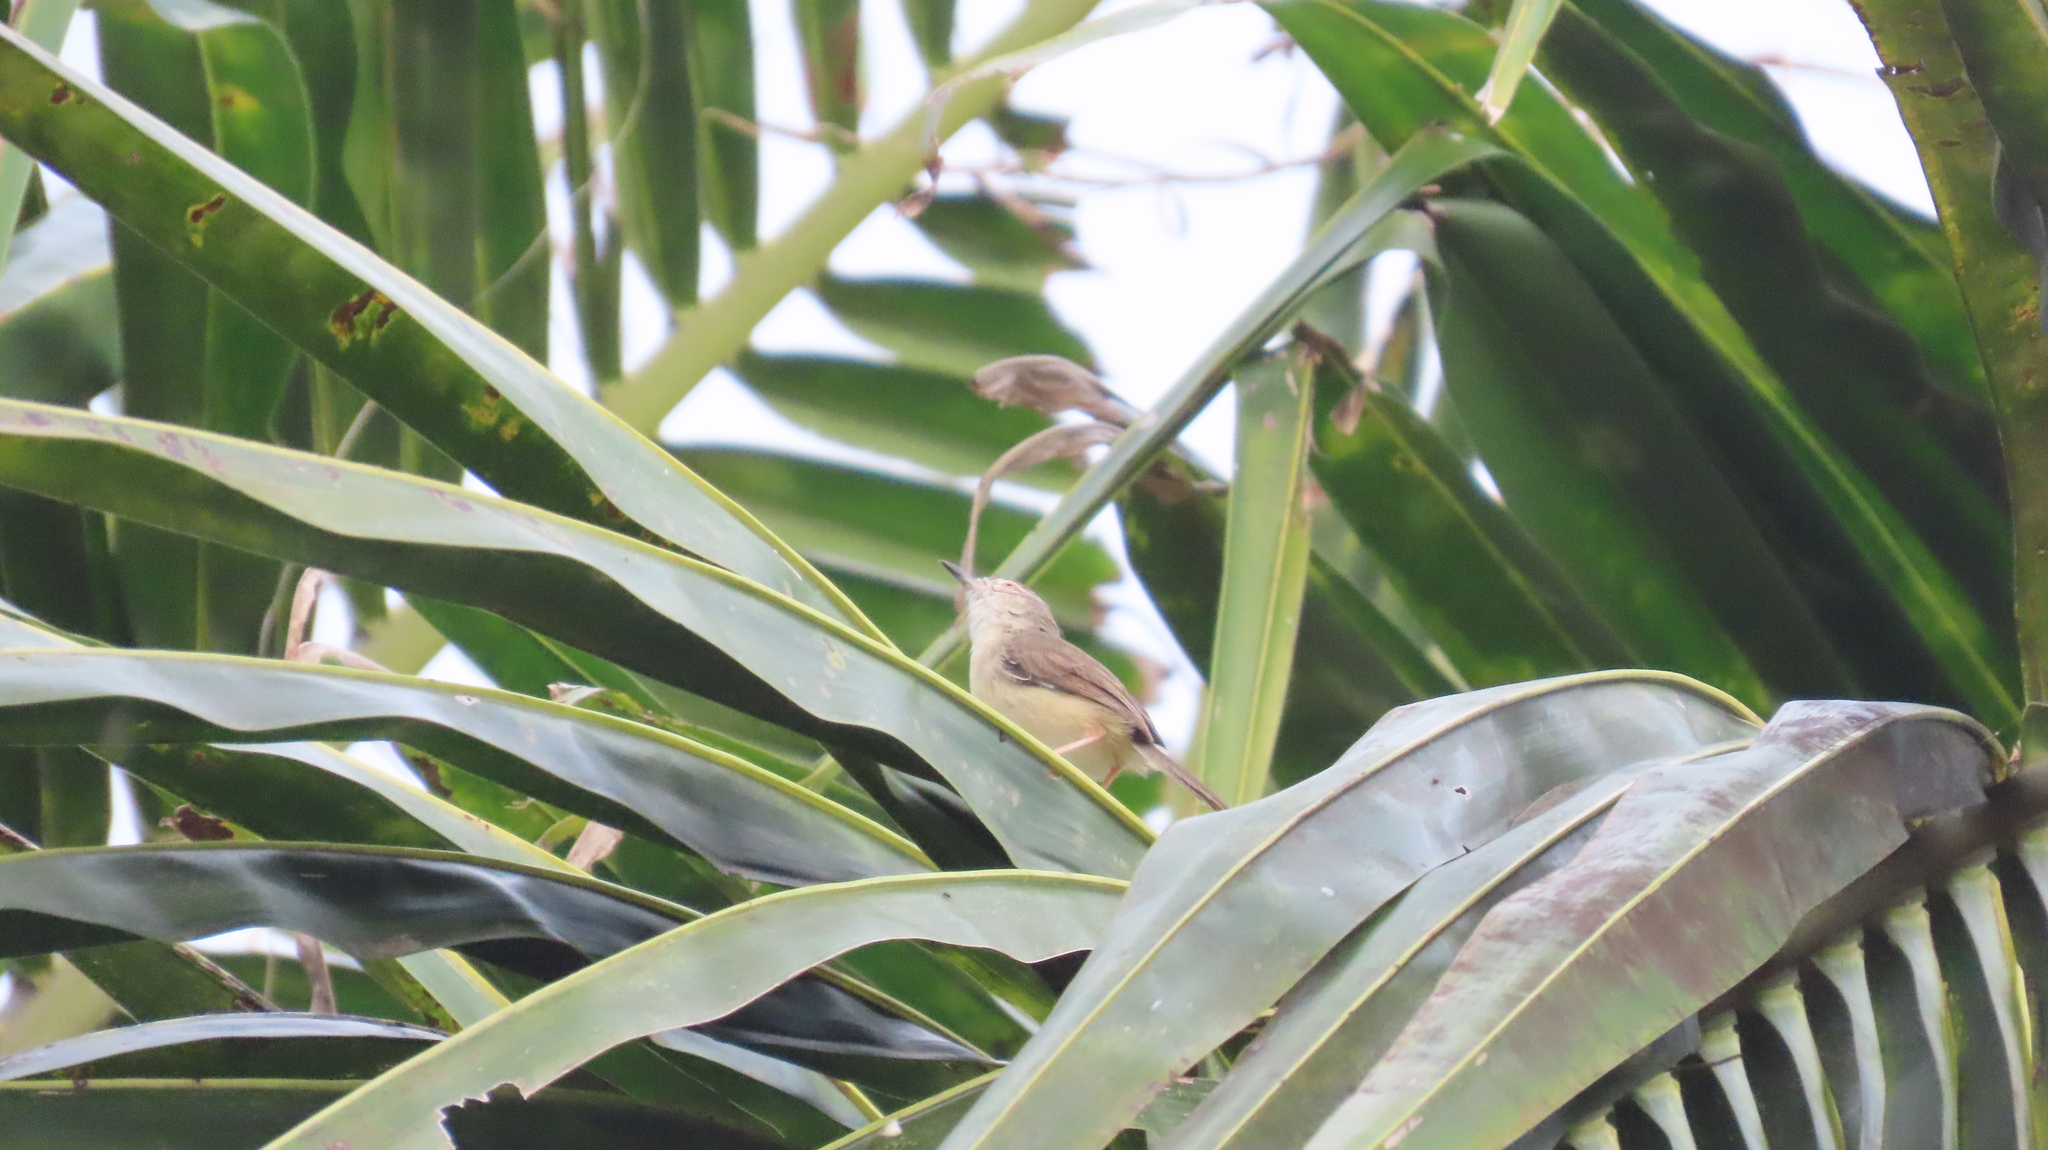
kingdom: Animalia
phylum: Chordata
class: Aves
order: Passeriformes
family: Cisticolidae
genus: Prinia
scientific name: Prinia inornata
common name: Plain prinia
